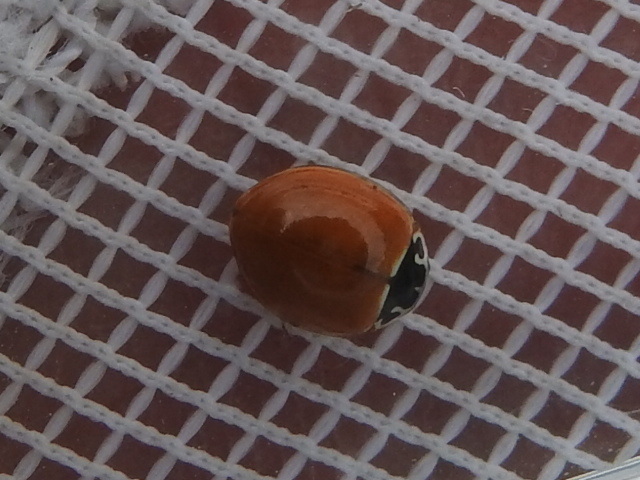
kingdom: Animalia
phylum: Arthropoda
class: Insecta
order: Coleoptera
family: Coccinellidae
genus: Cycloneda
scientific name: Cycloneda munda
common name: Polished lady beetle
